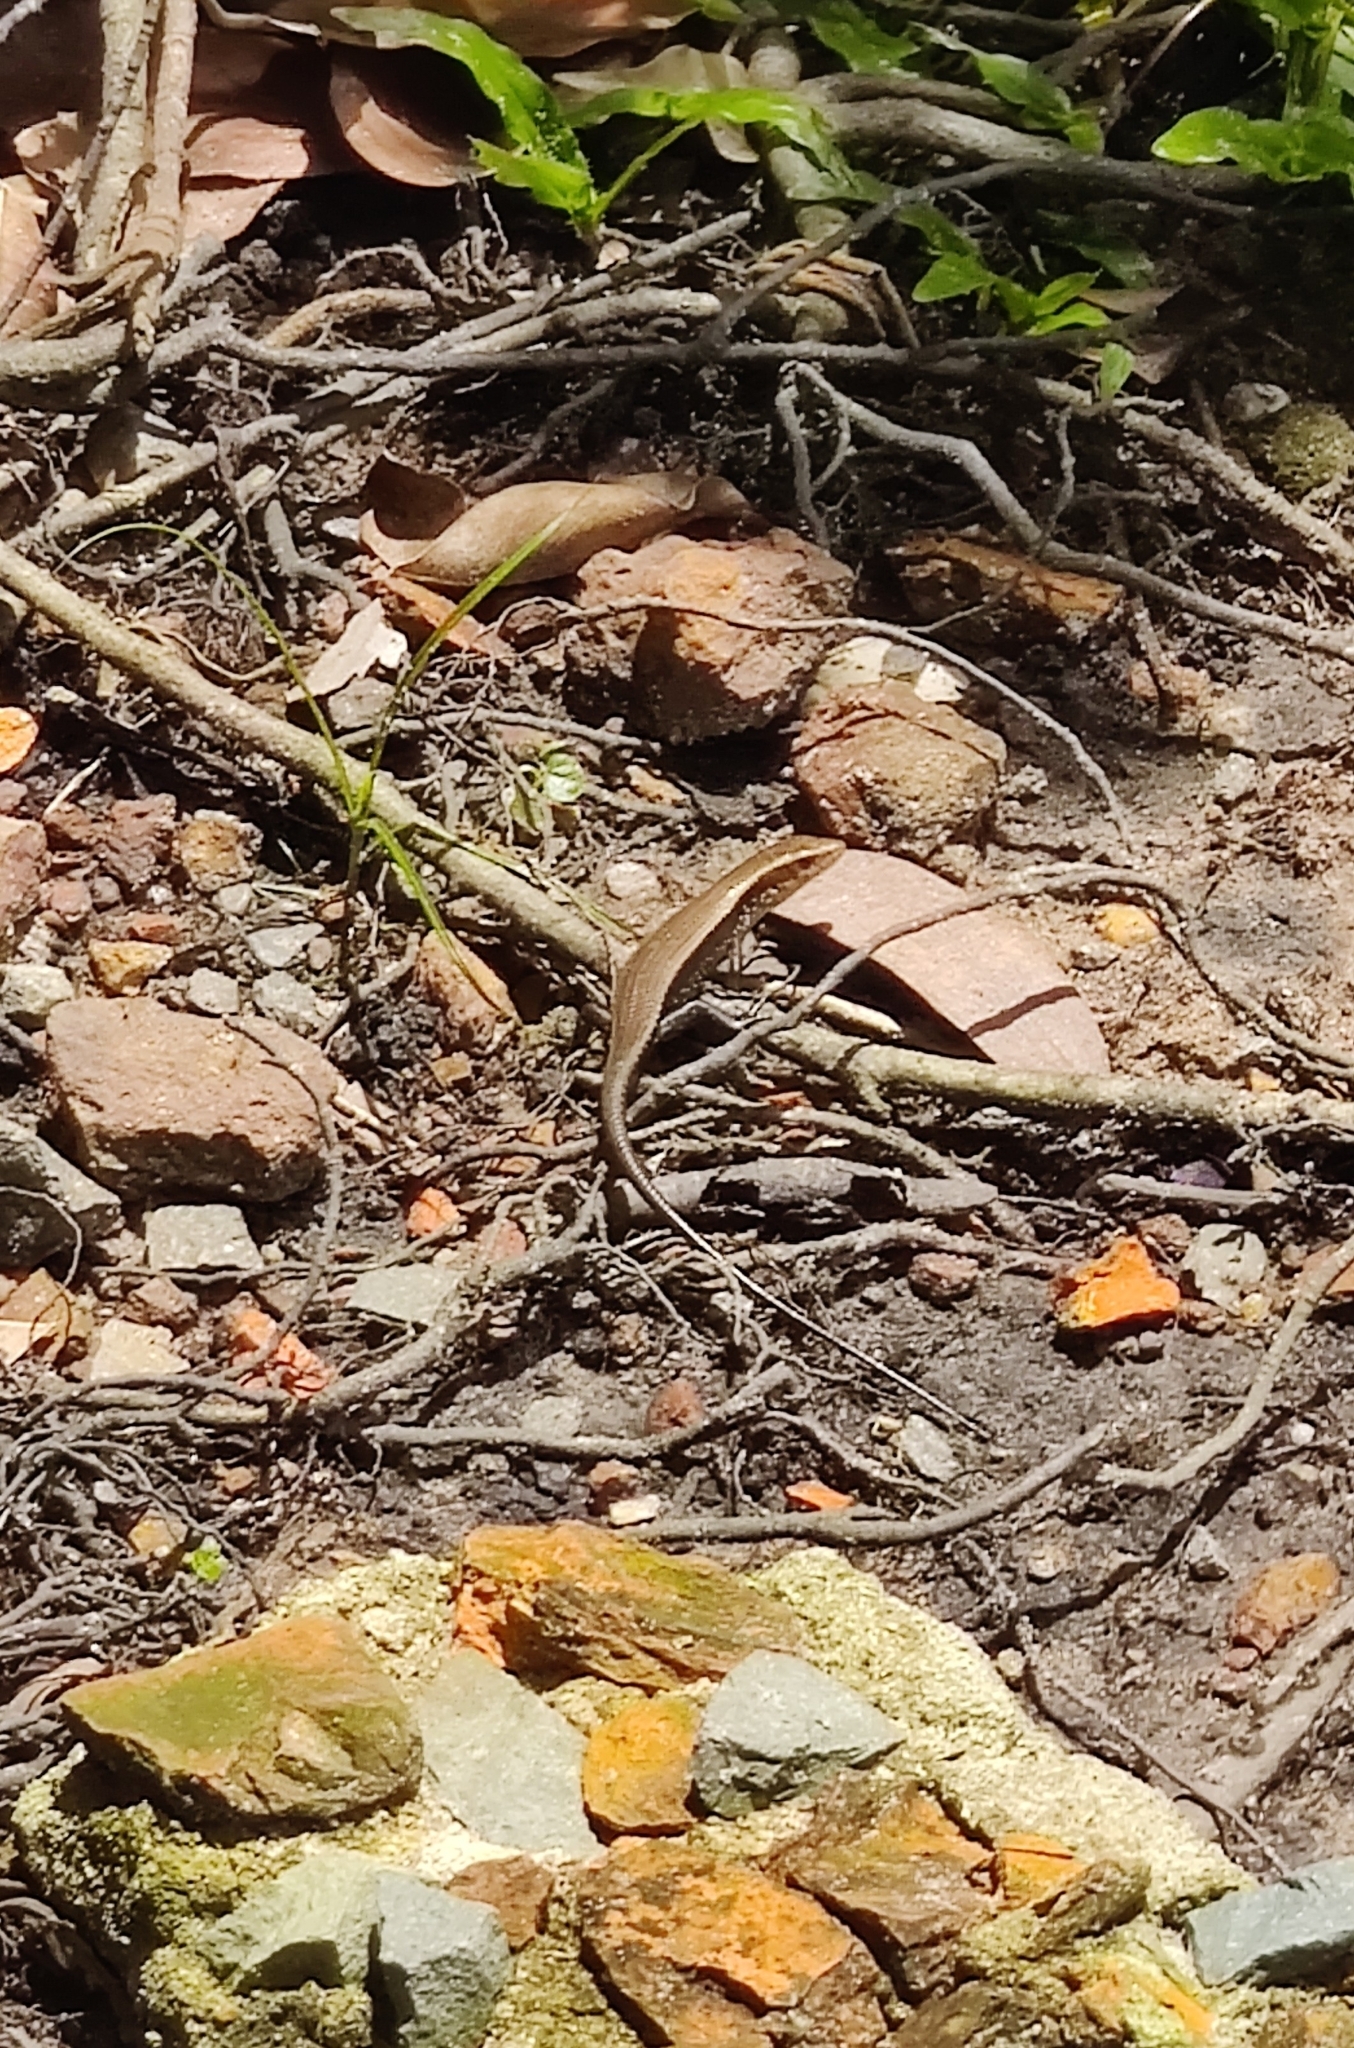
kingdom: Animalia
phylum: Chordata
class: Squamata
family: Scincidae
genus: Eutropis
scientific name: Eutropis multifasciata
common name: Common mabuya
